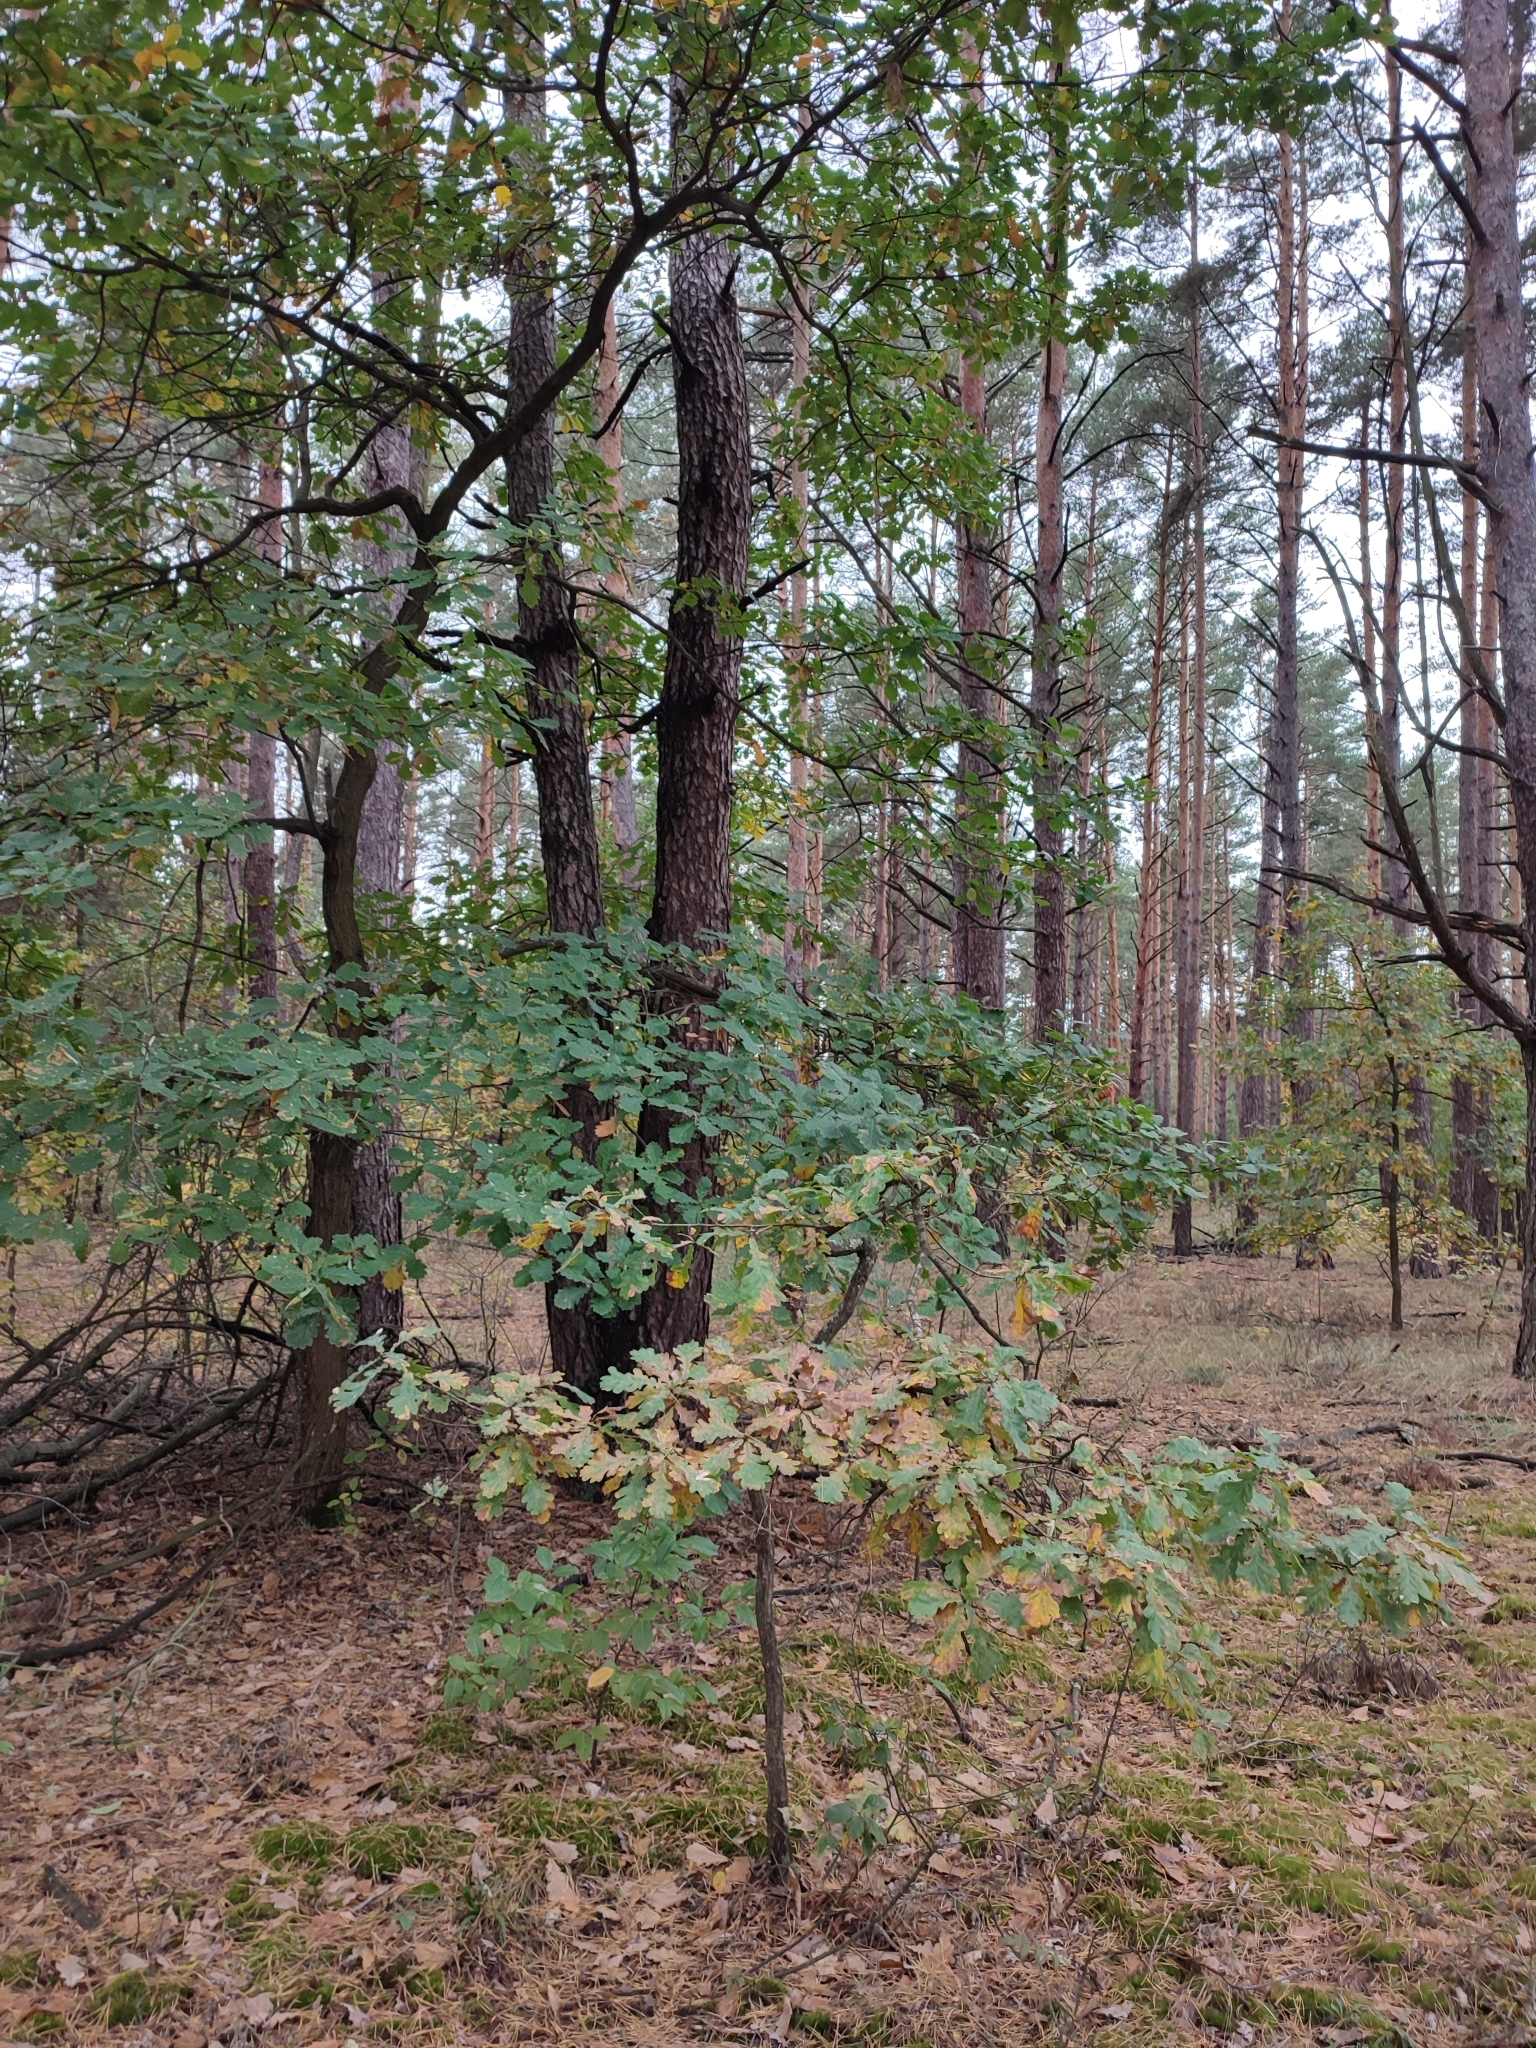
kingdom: Plantae
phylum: Tracheophyta
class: Magnoliopsida
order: Fagales
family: Fagaceae
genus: Quercus
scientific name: Quercus robur
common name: Pedunculate oak
